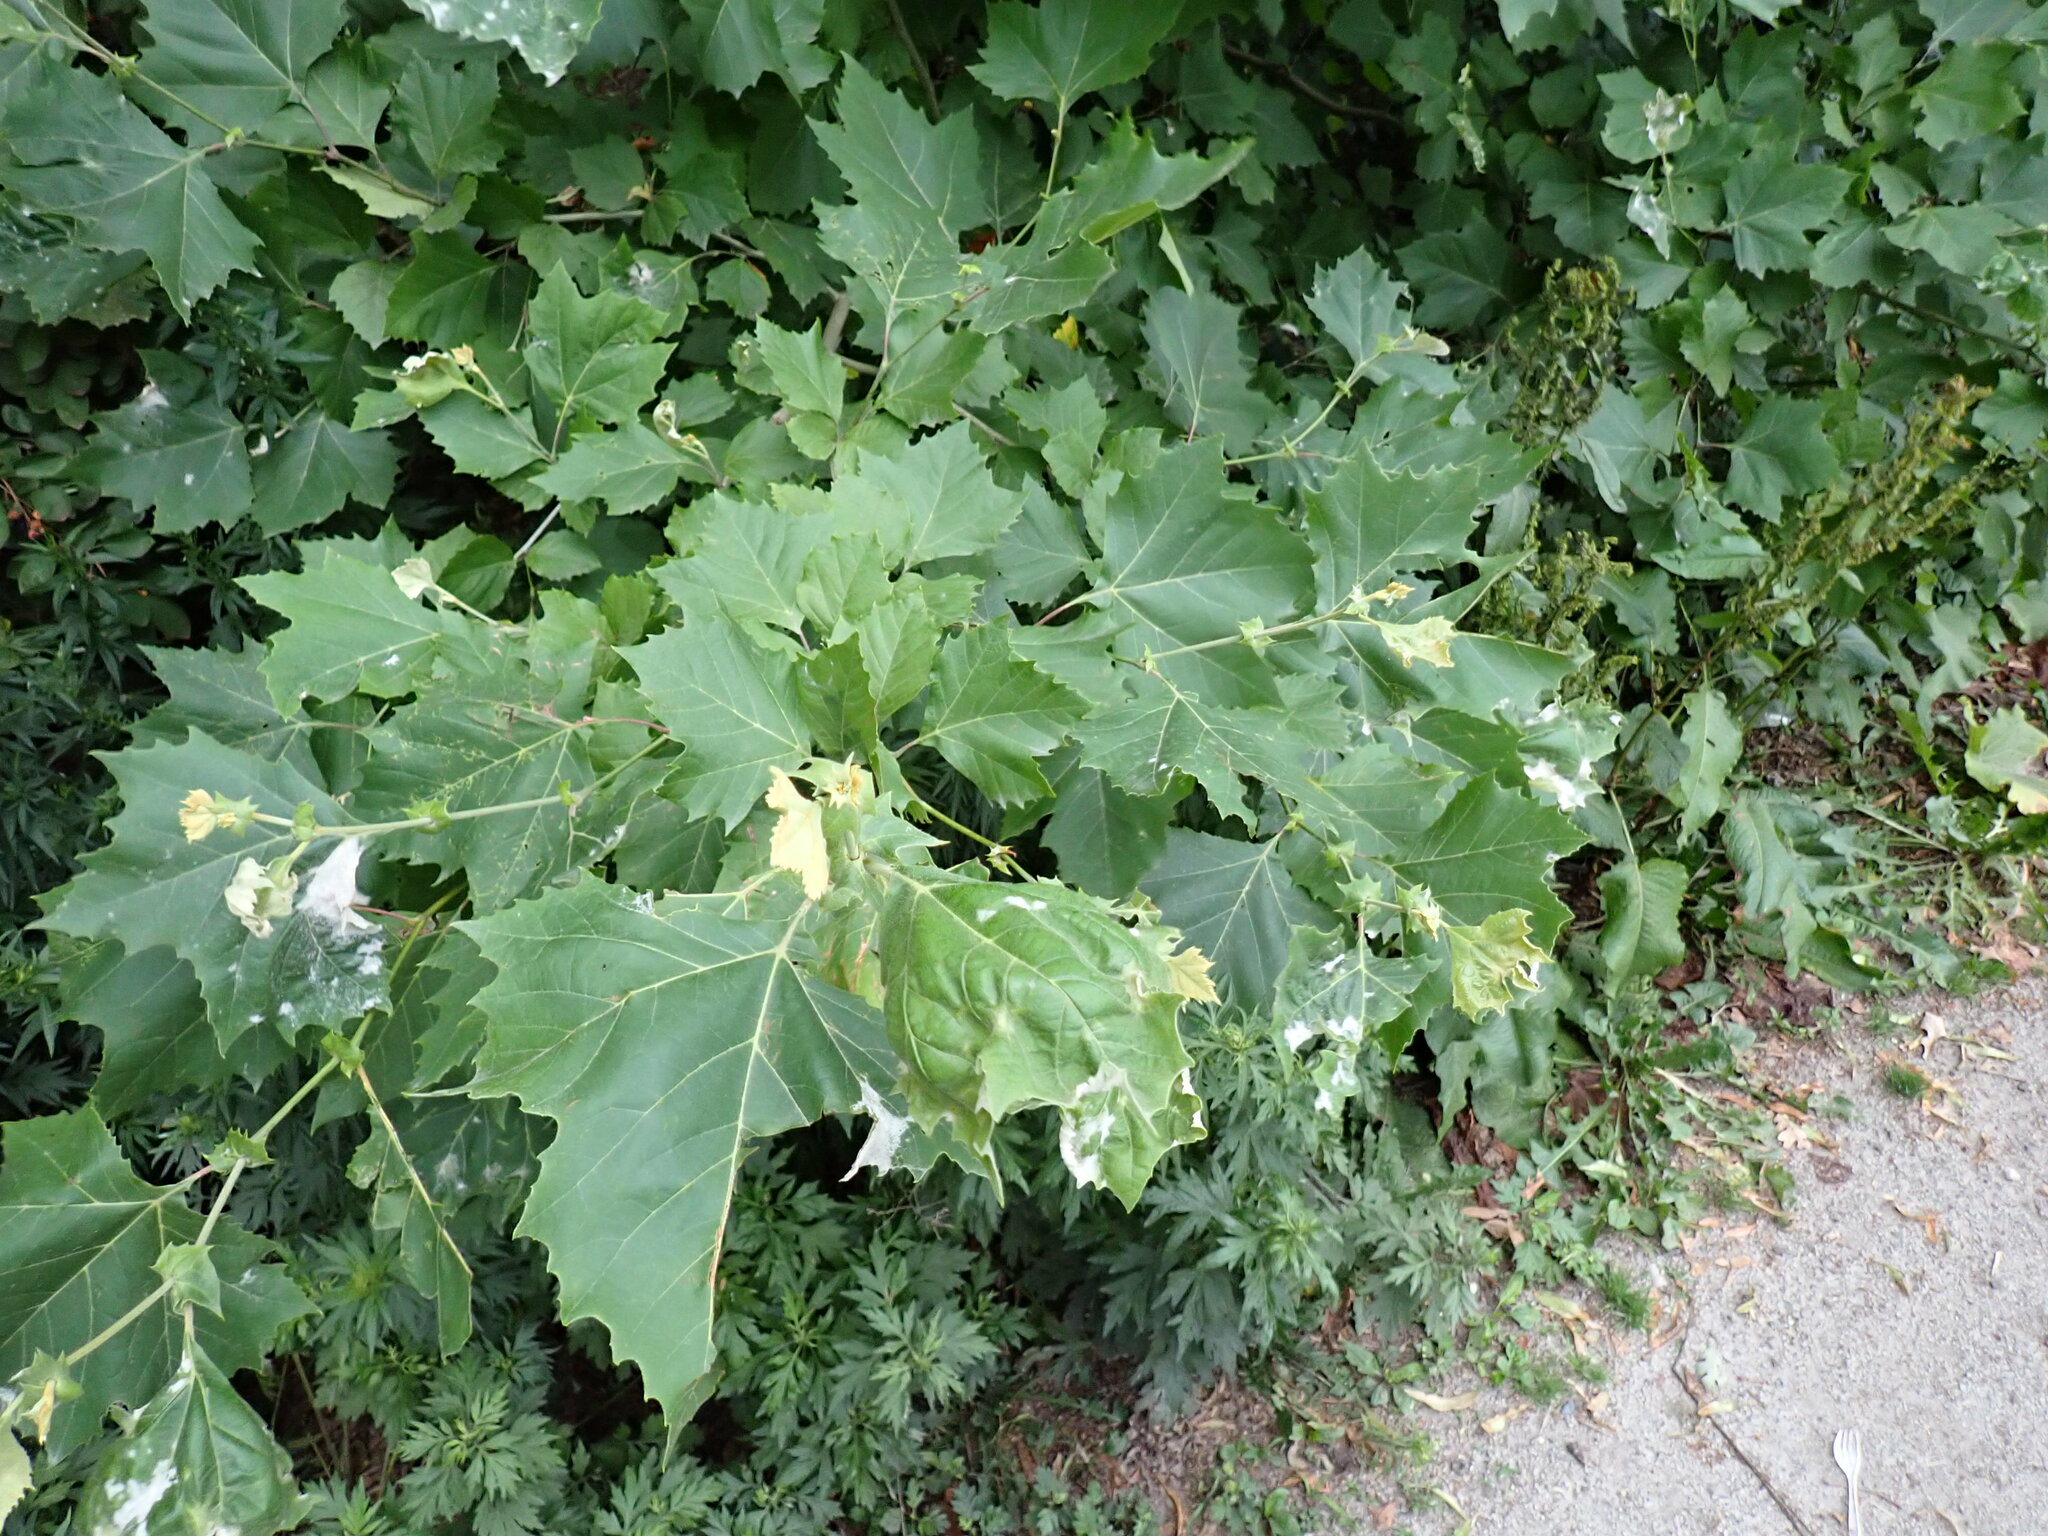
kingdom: Fungi
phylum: Ascomycota
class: Leotiomycetes
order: Helotiales
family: Erysiphaceae
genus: Erysiphe
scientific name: Erysiphe platani
